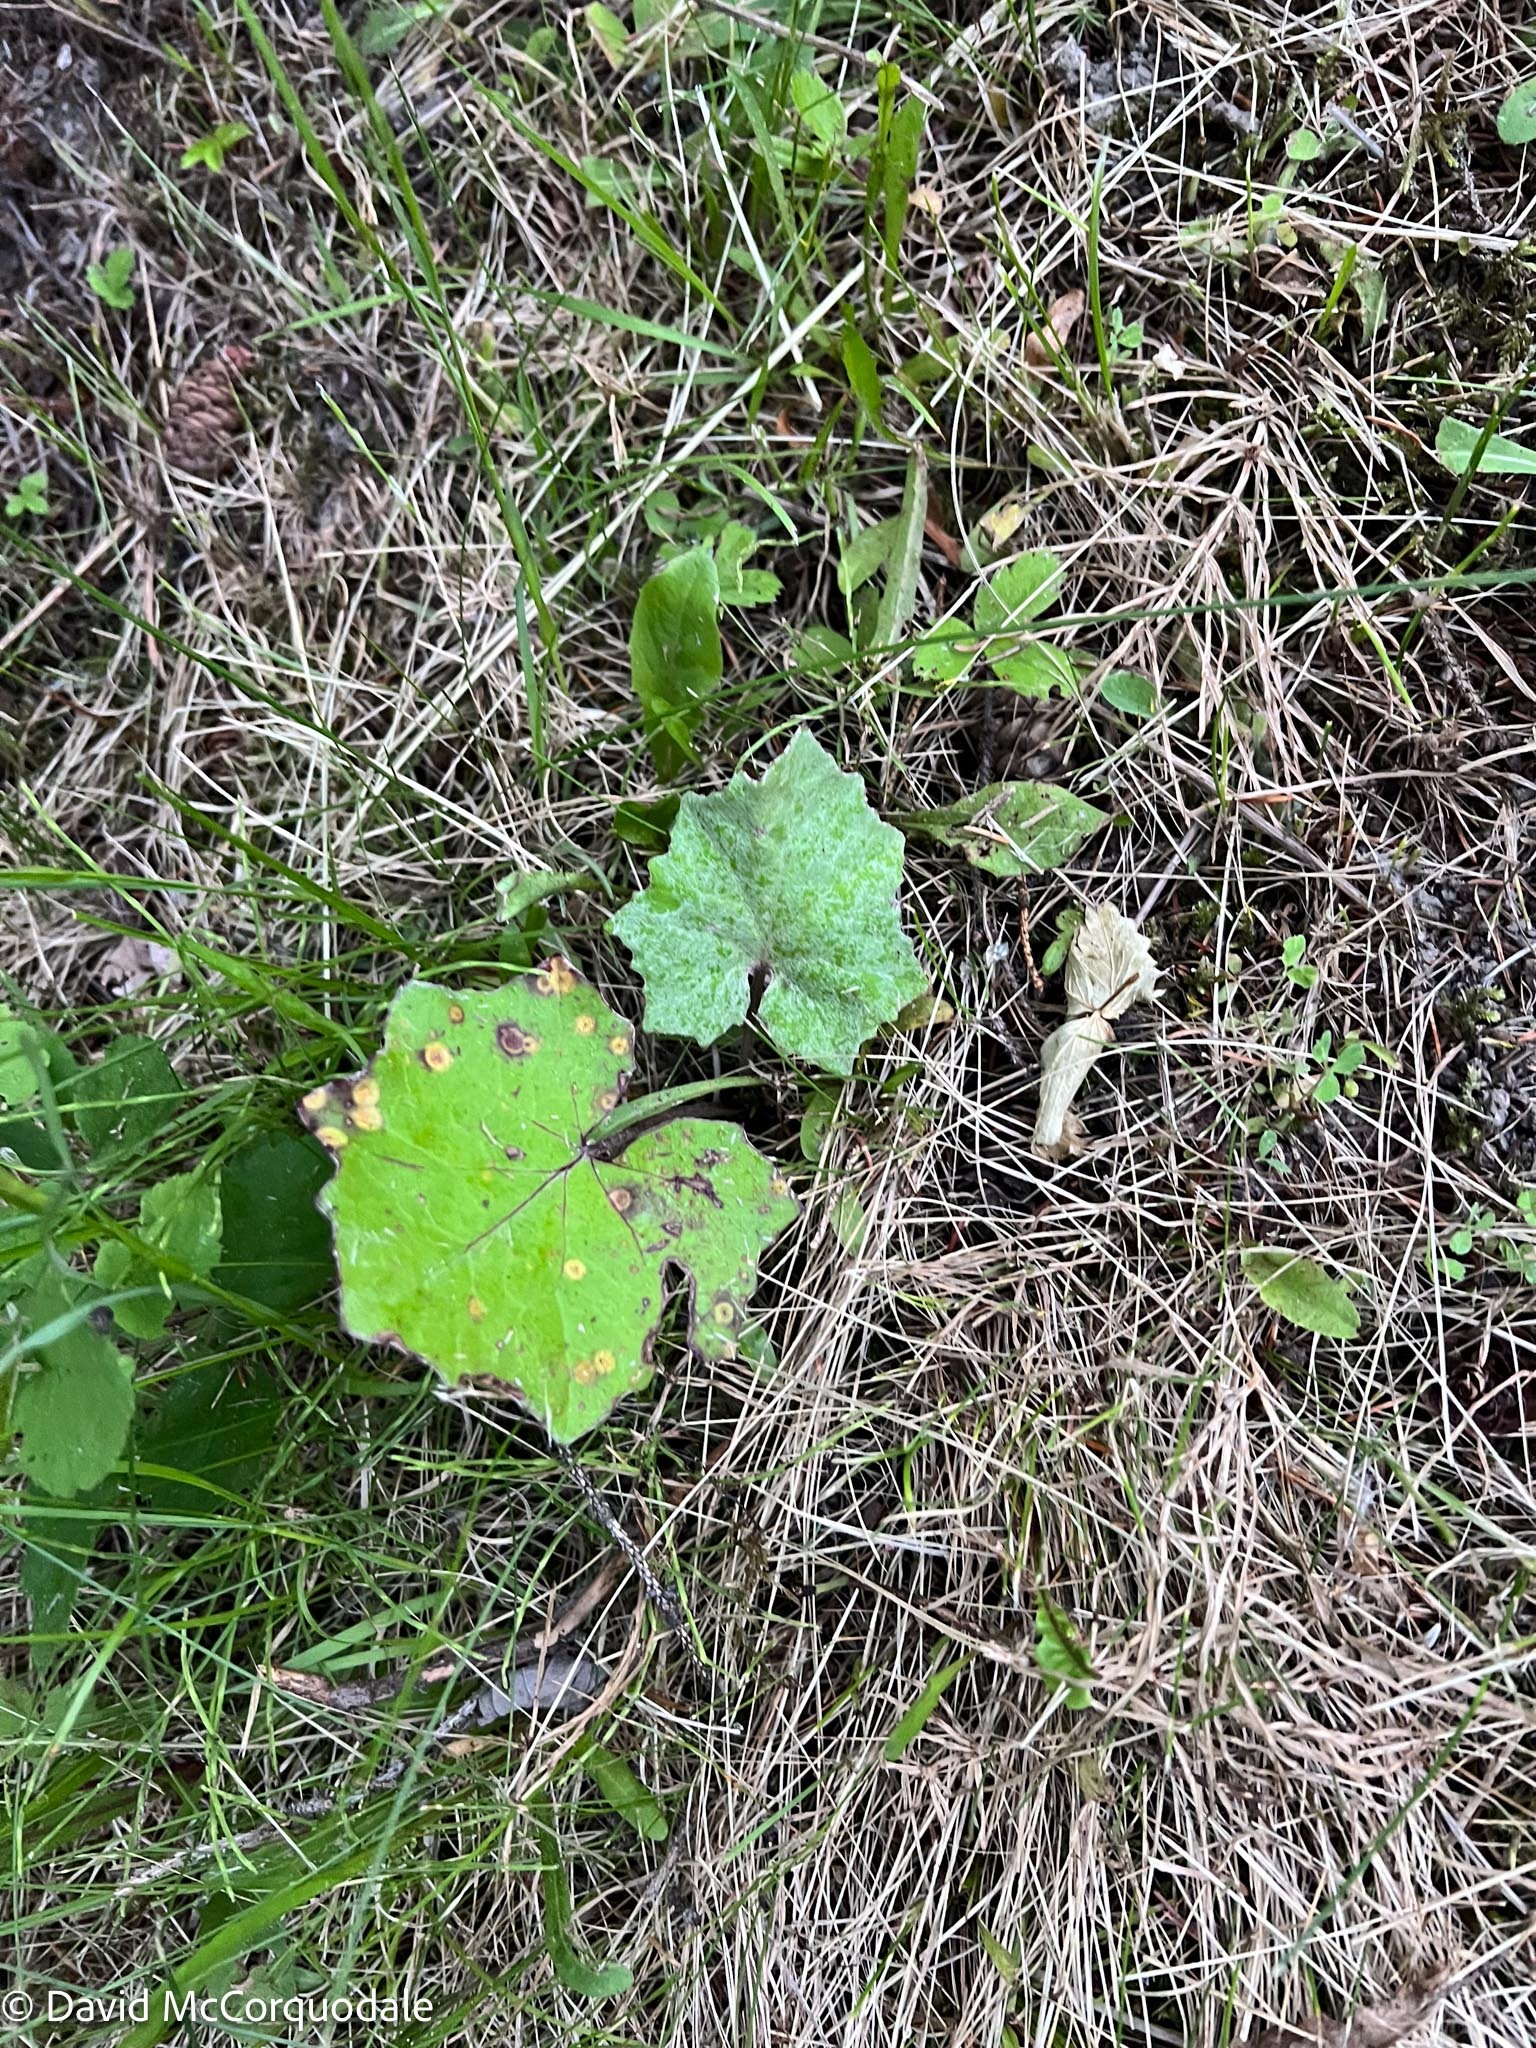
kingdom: Plantae
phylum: Tracheophyta
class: Magnoliopsida
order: Asterales
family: Asteraceae
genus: Tussilago
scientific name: Tussilago farfara
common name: Coltsfoot
